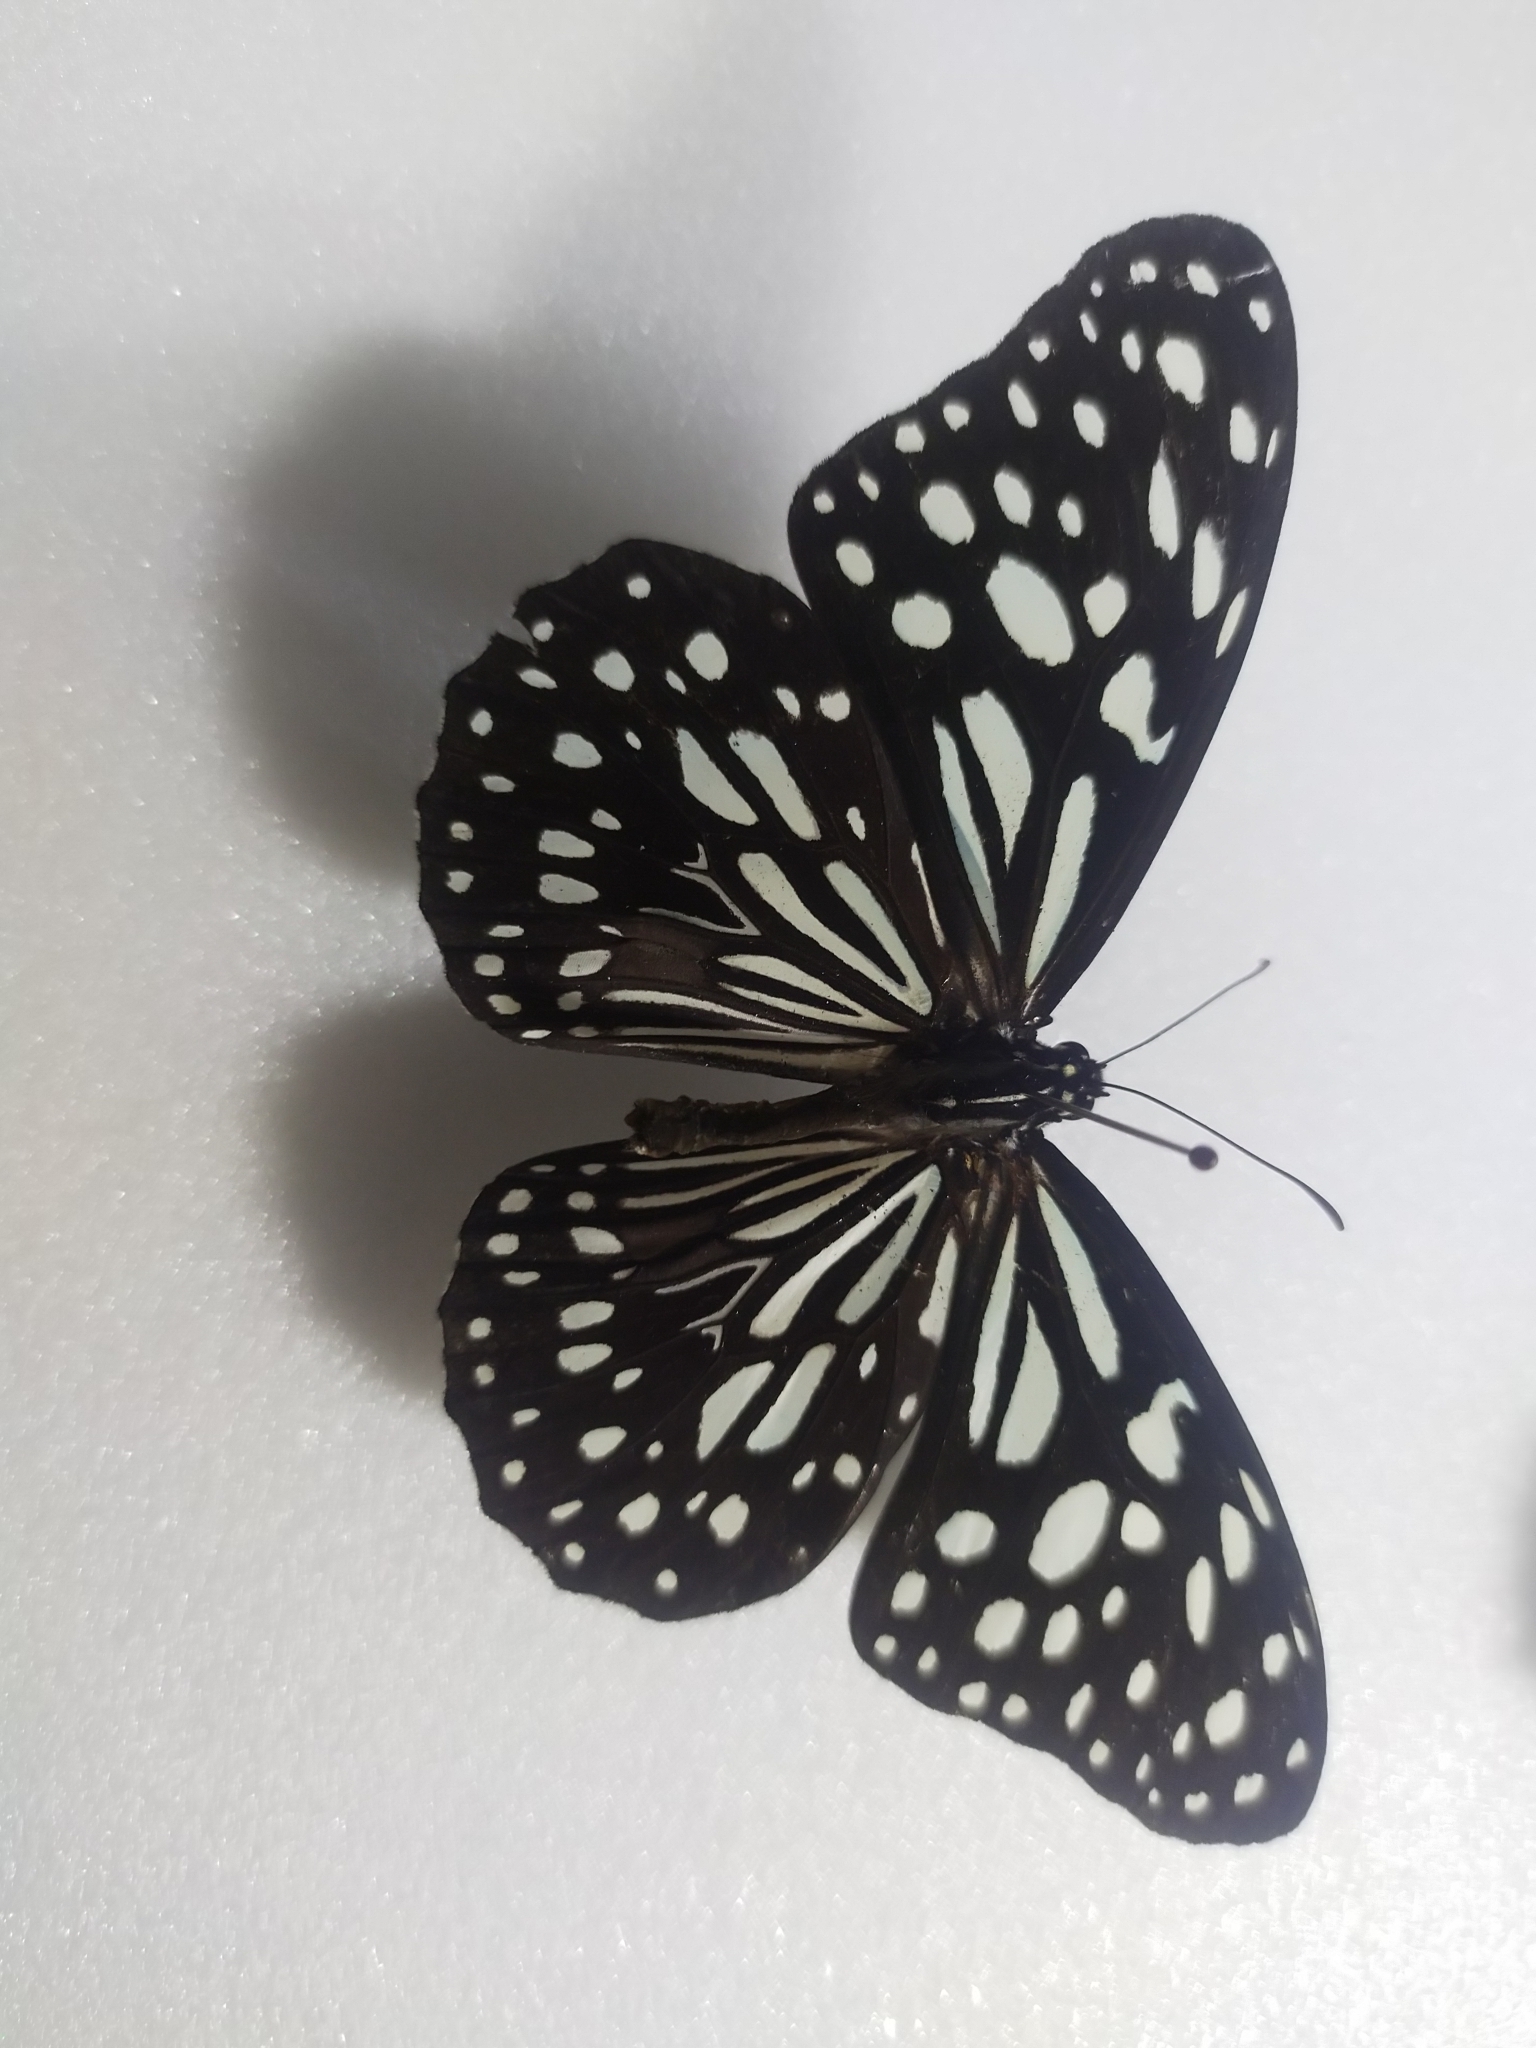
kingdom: Animalia
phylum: Arthropoda
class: Insecta
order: Lepidoptera
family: Nymphalidae
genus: Tirumala
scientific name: Tirumala limniace
